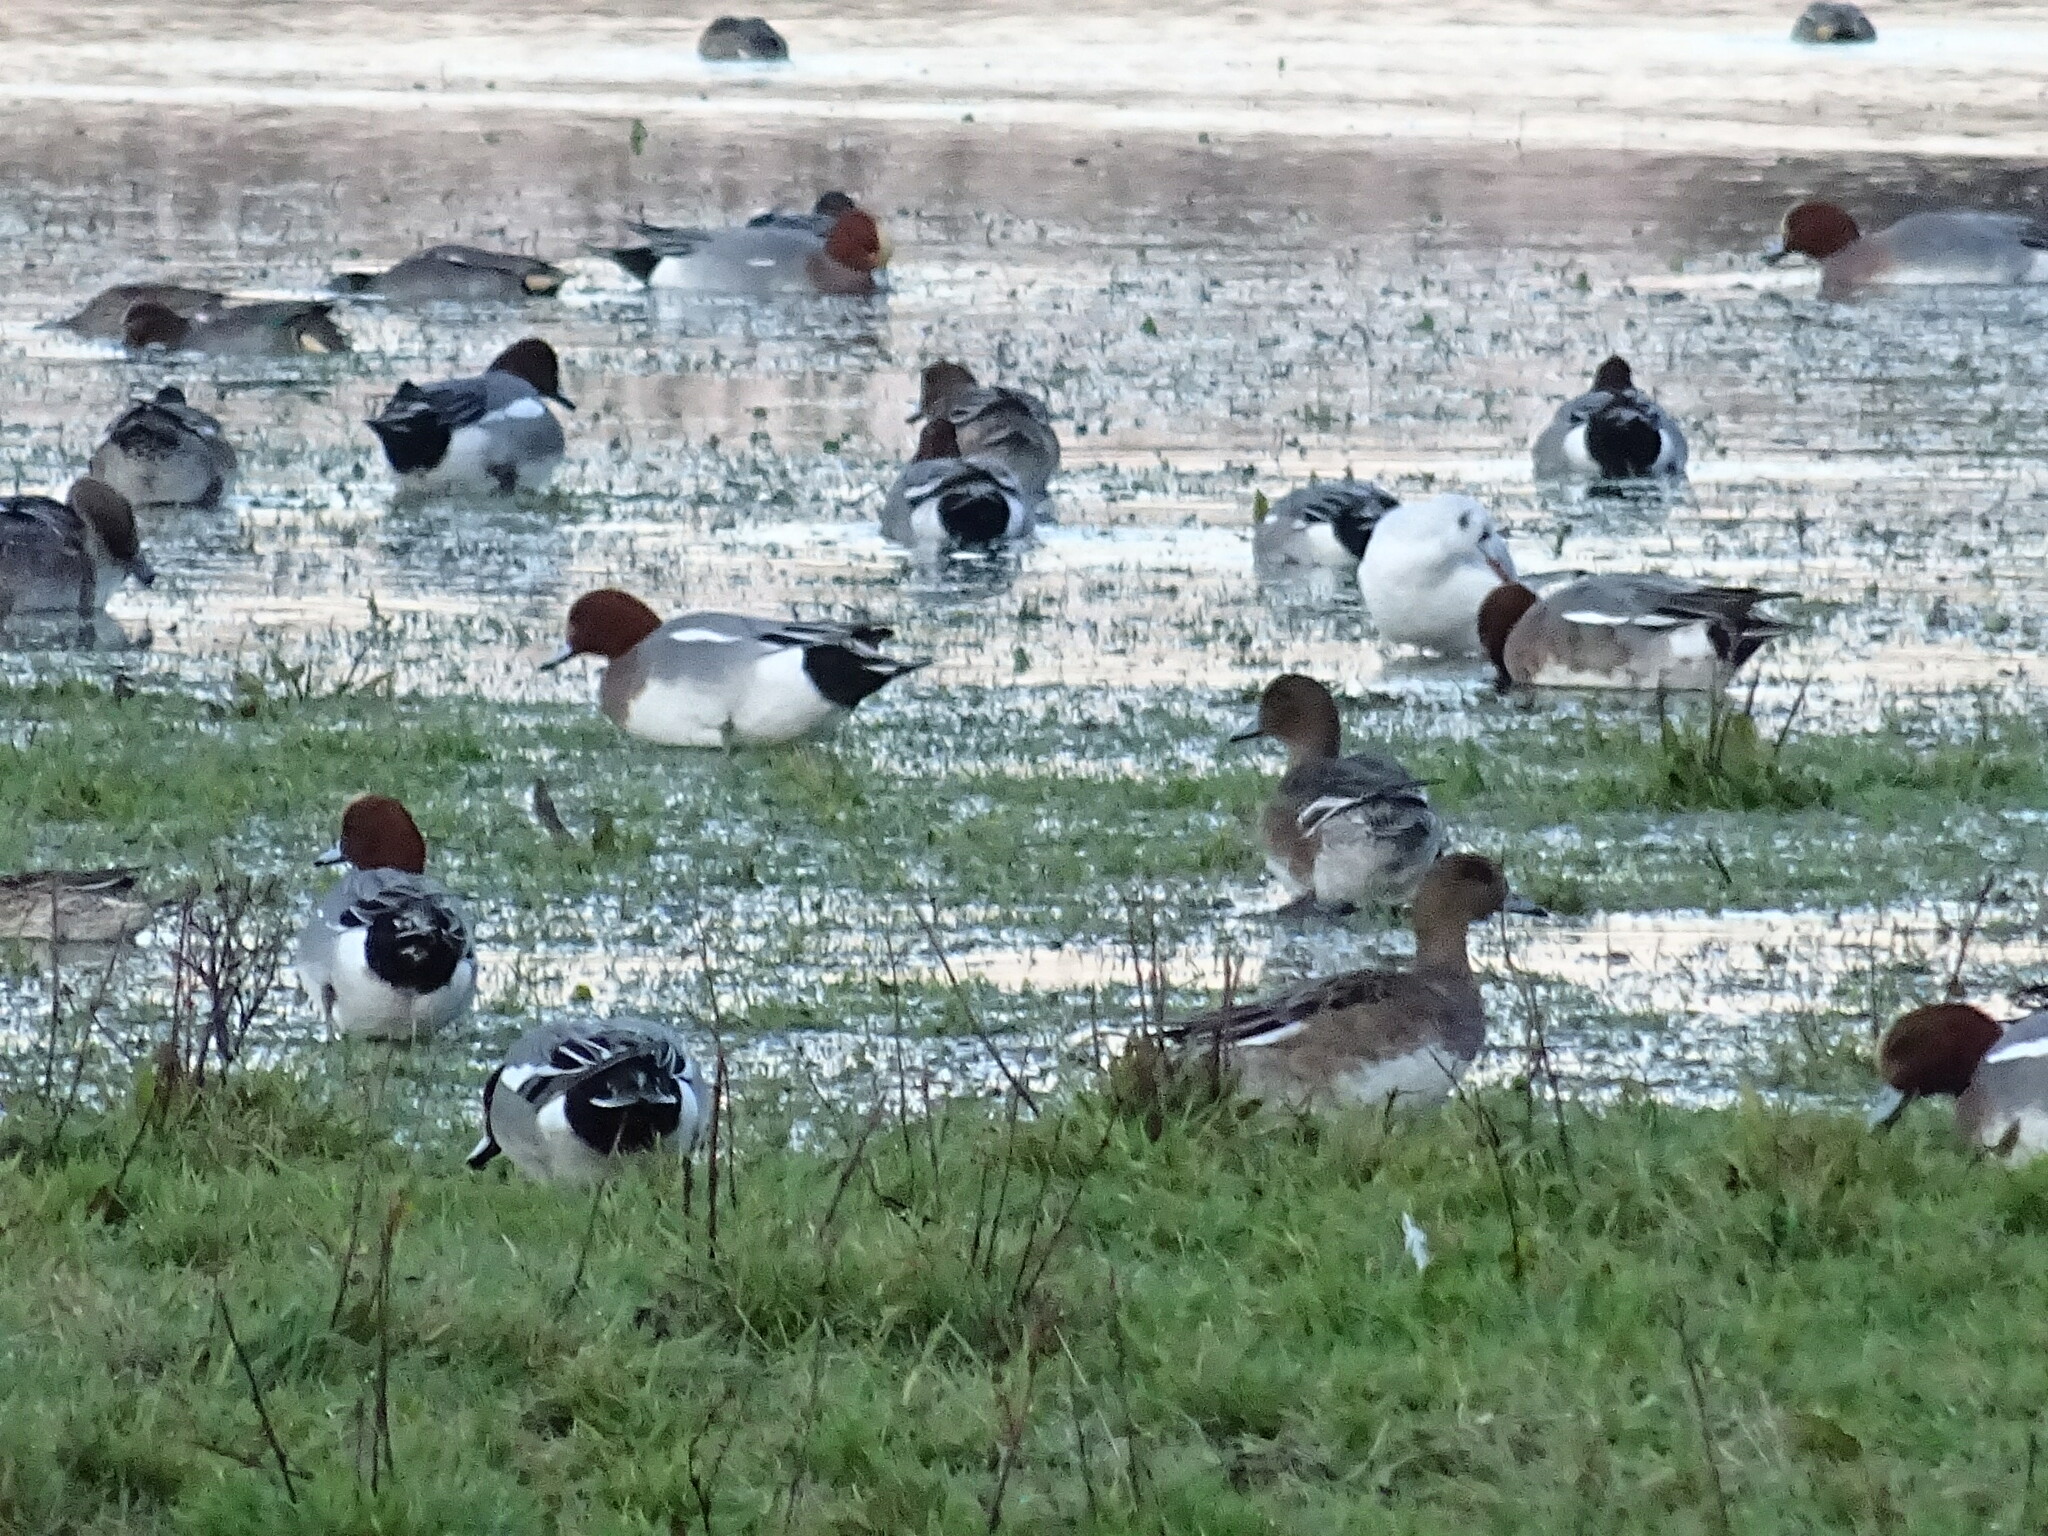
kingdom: Animalia
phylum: Chordata
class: Aves
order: Anseriformes
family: Anatidae
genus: Mareca
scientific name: Mareca penelope
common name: Eurasian wigeon
